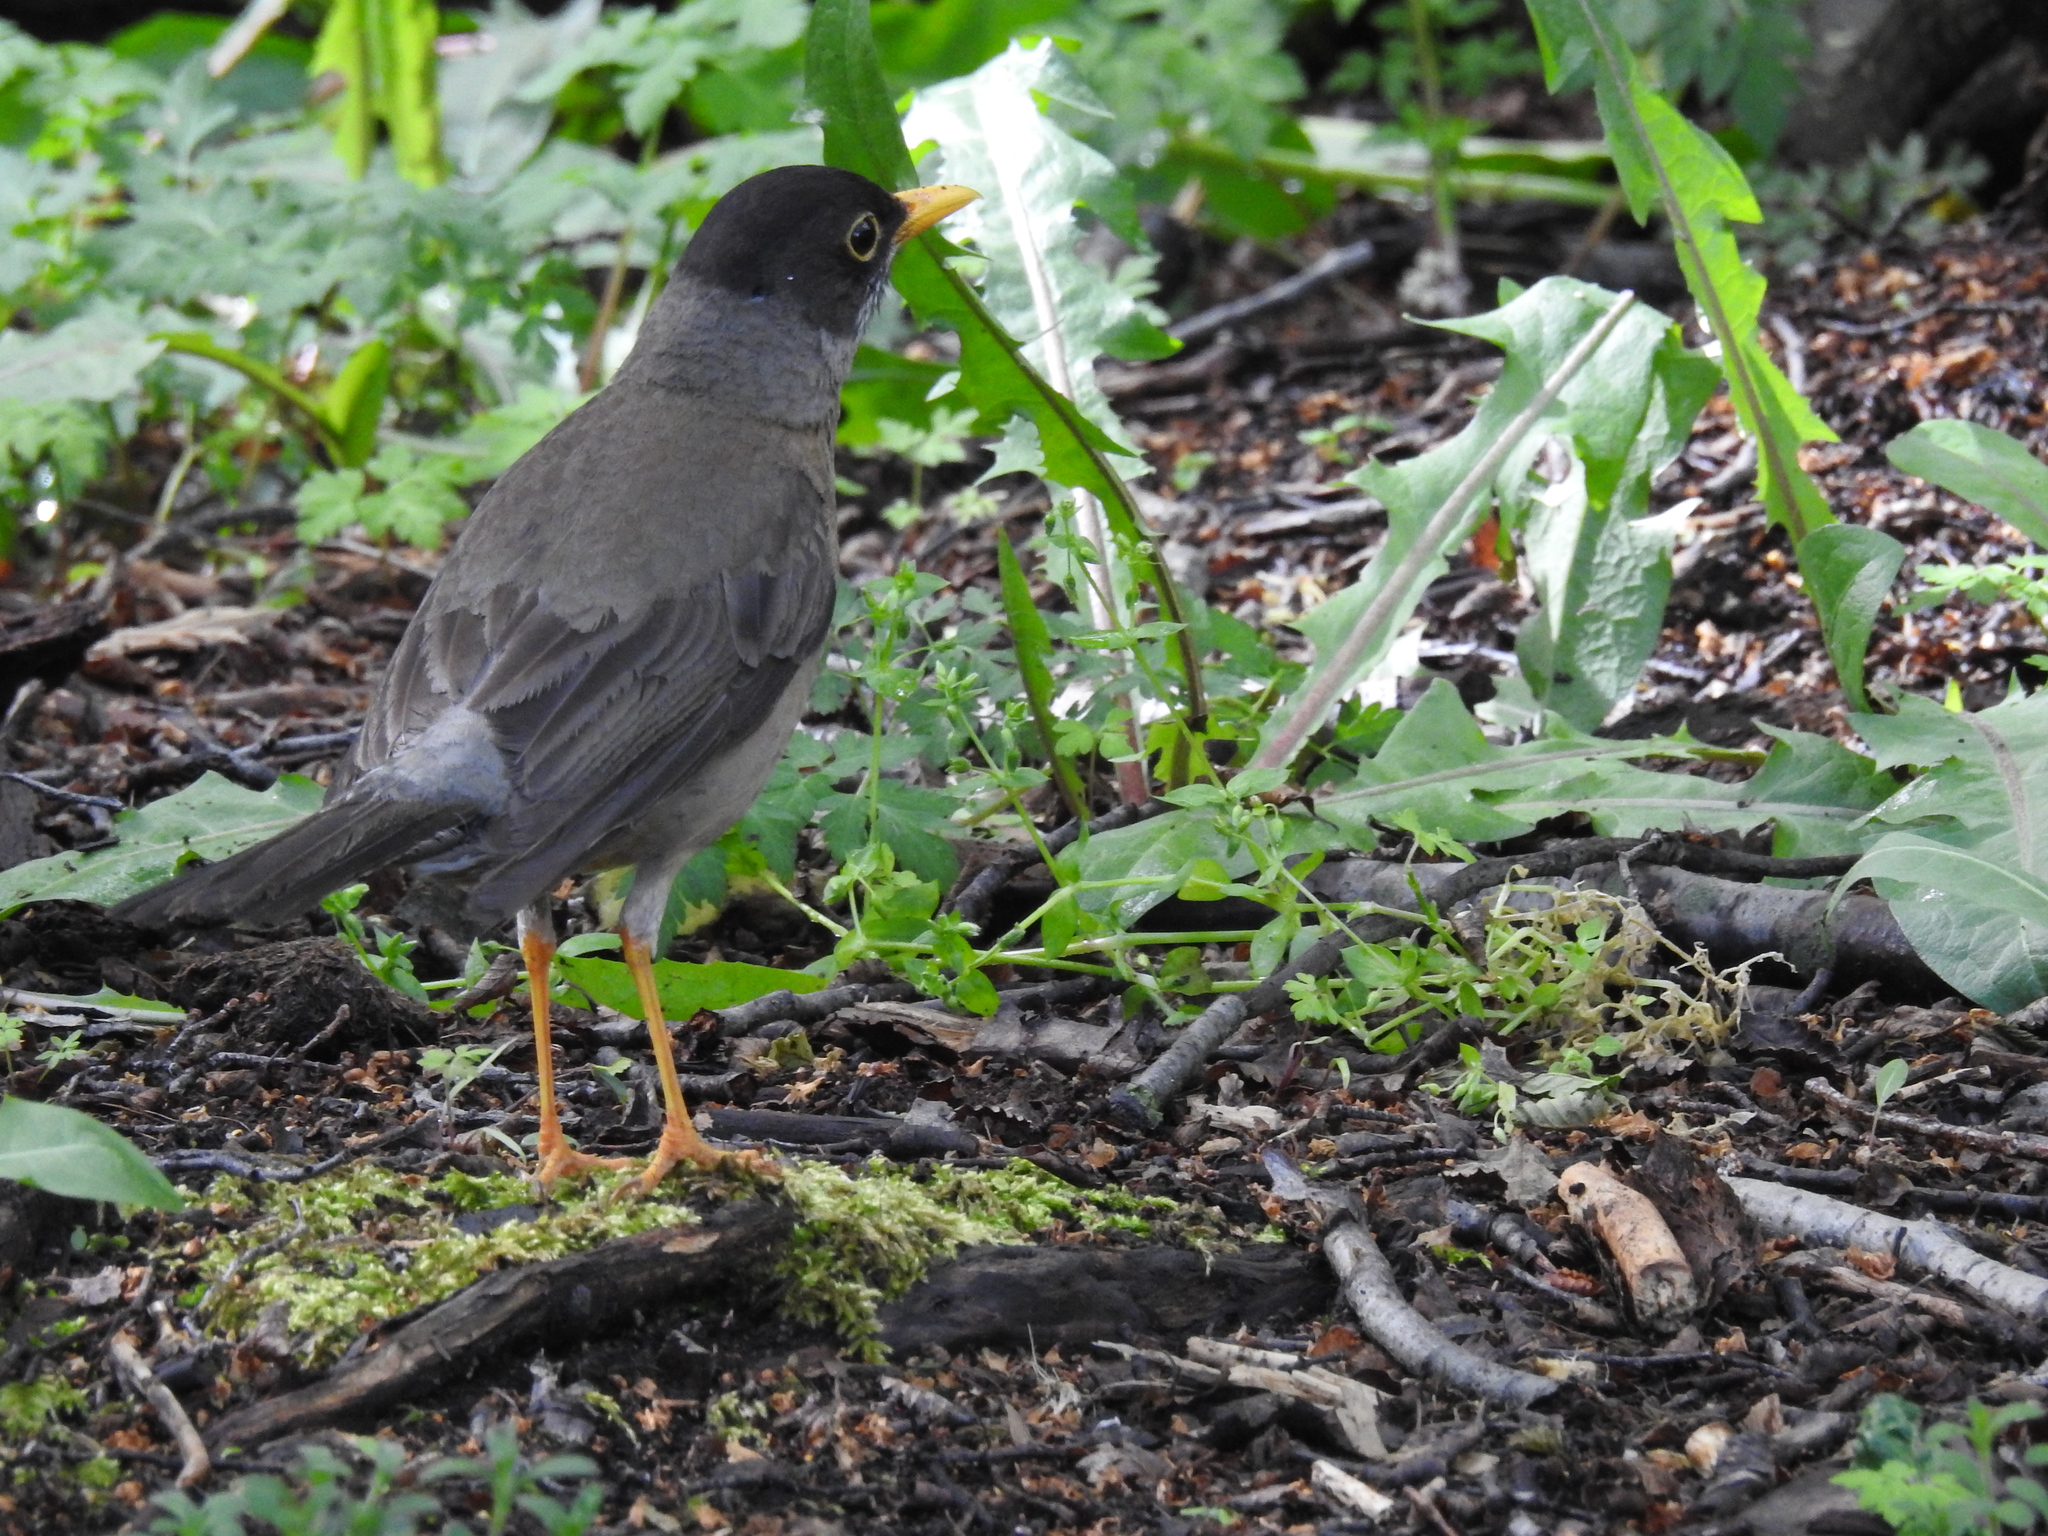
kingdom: Animalia
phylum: Chordata
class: Aves
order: Passeriformes
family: Turdidae
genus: Turdus
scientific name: Turdus falcklandii
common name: Austral thrush
